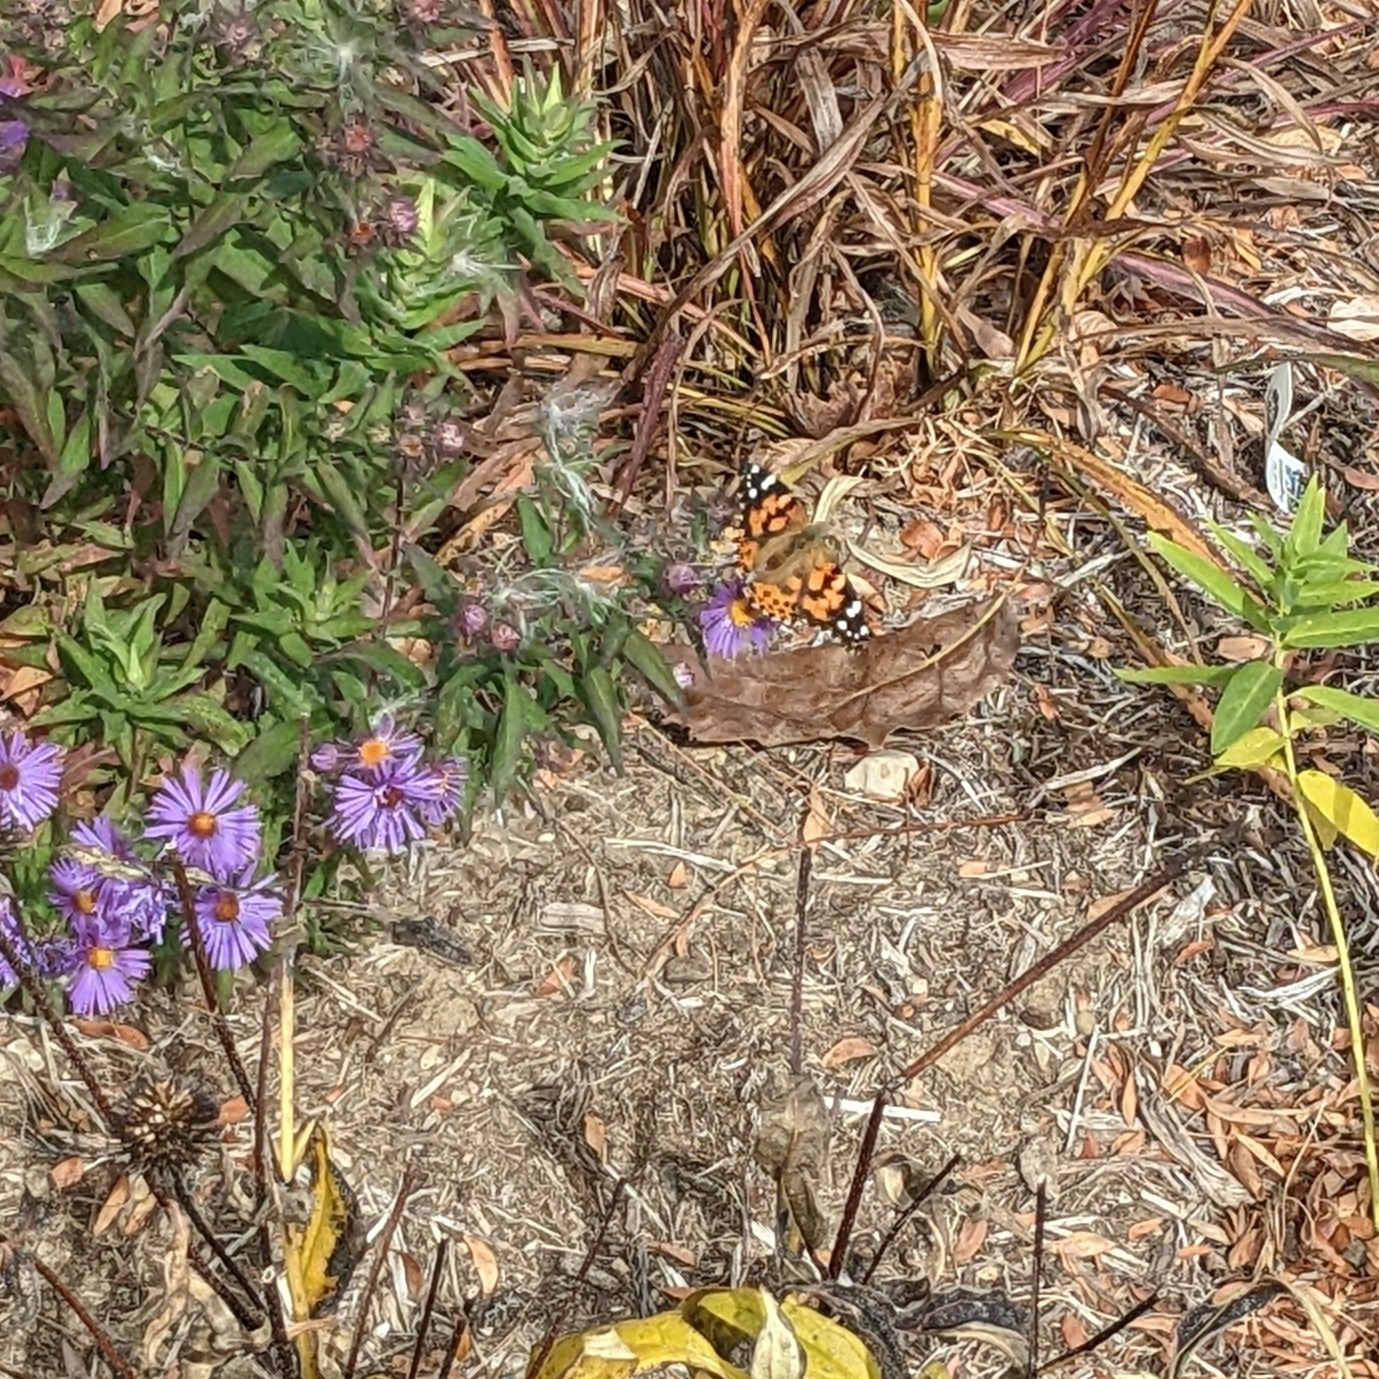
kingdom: Animalia
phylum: Arthropoda
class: Insecta
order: Lepidoptera
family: Nymphalidae
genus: Vanessa
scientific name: Vanessa cardui
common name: Painted lady
